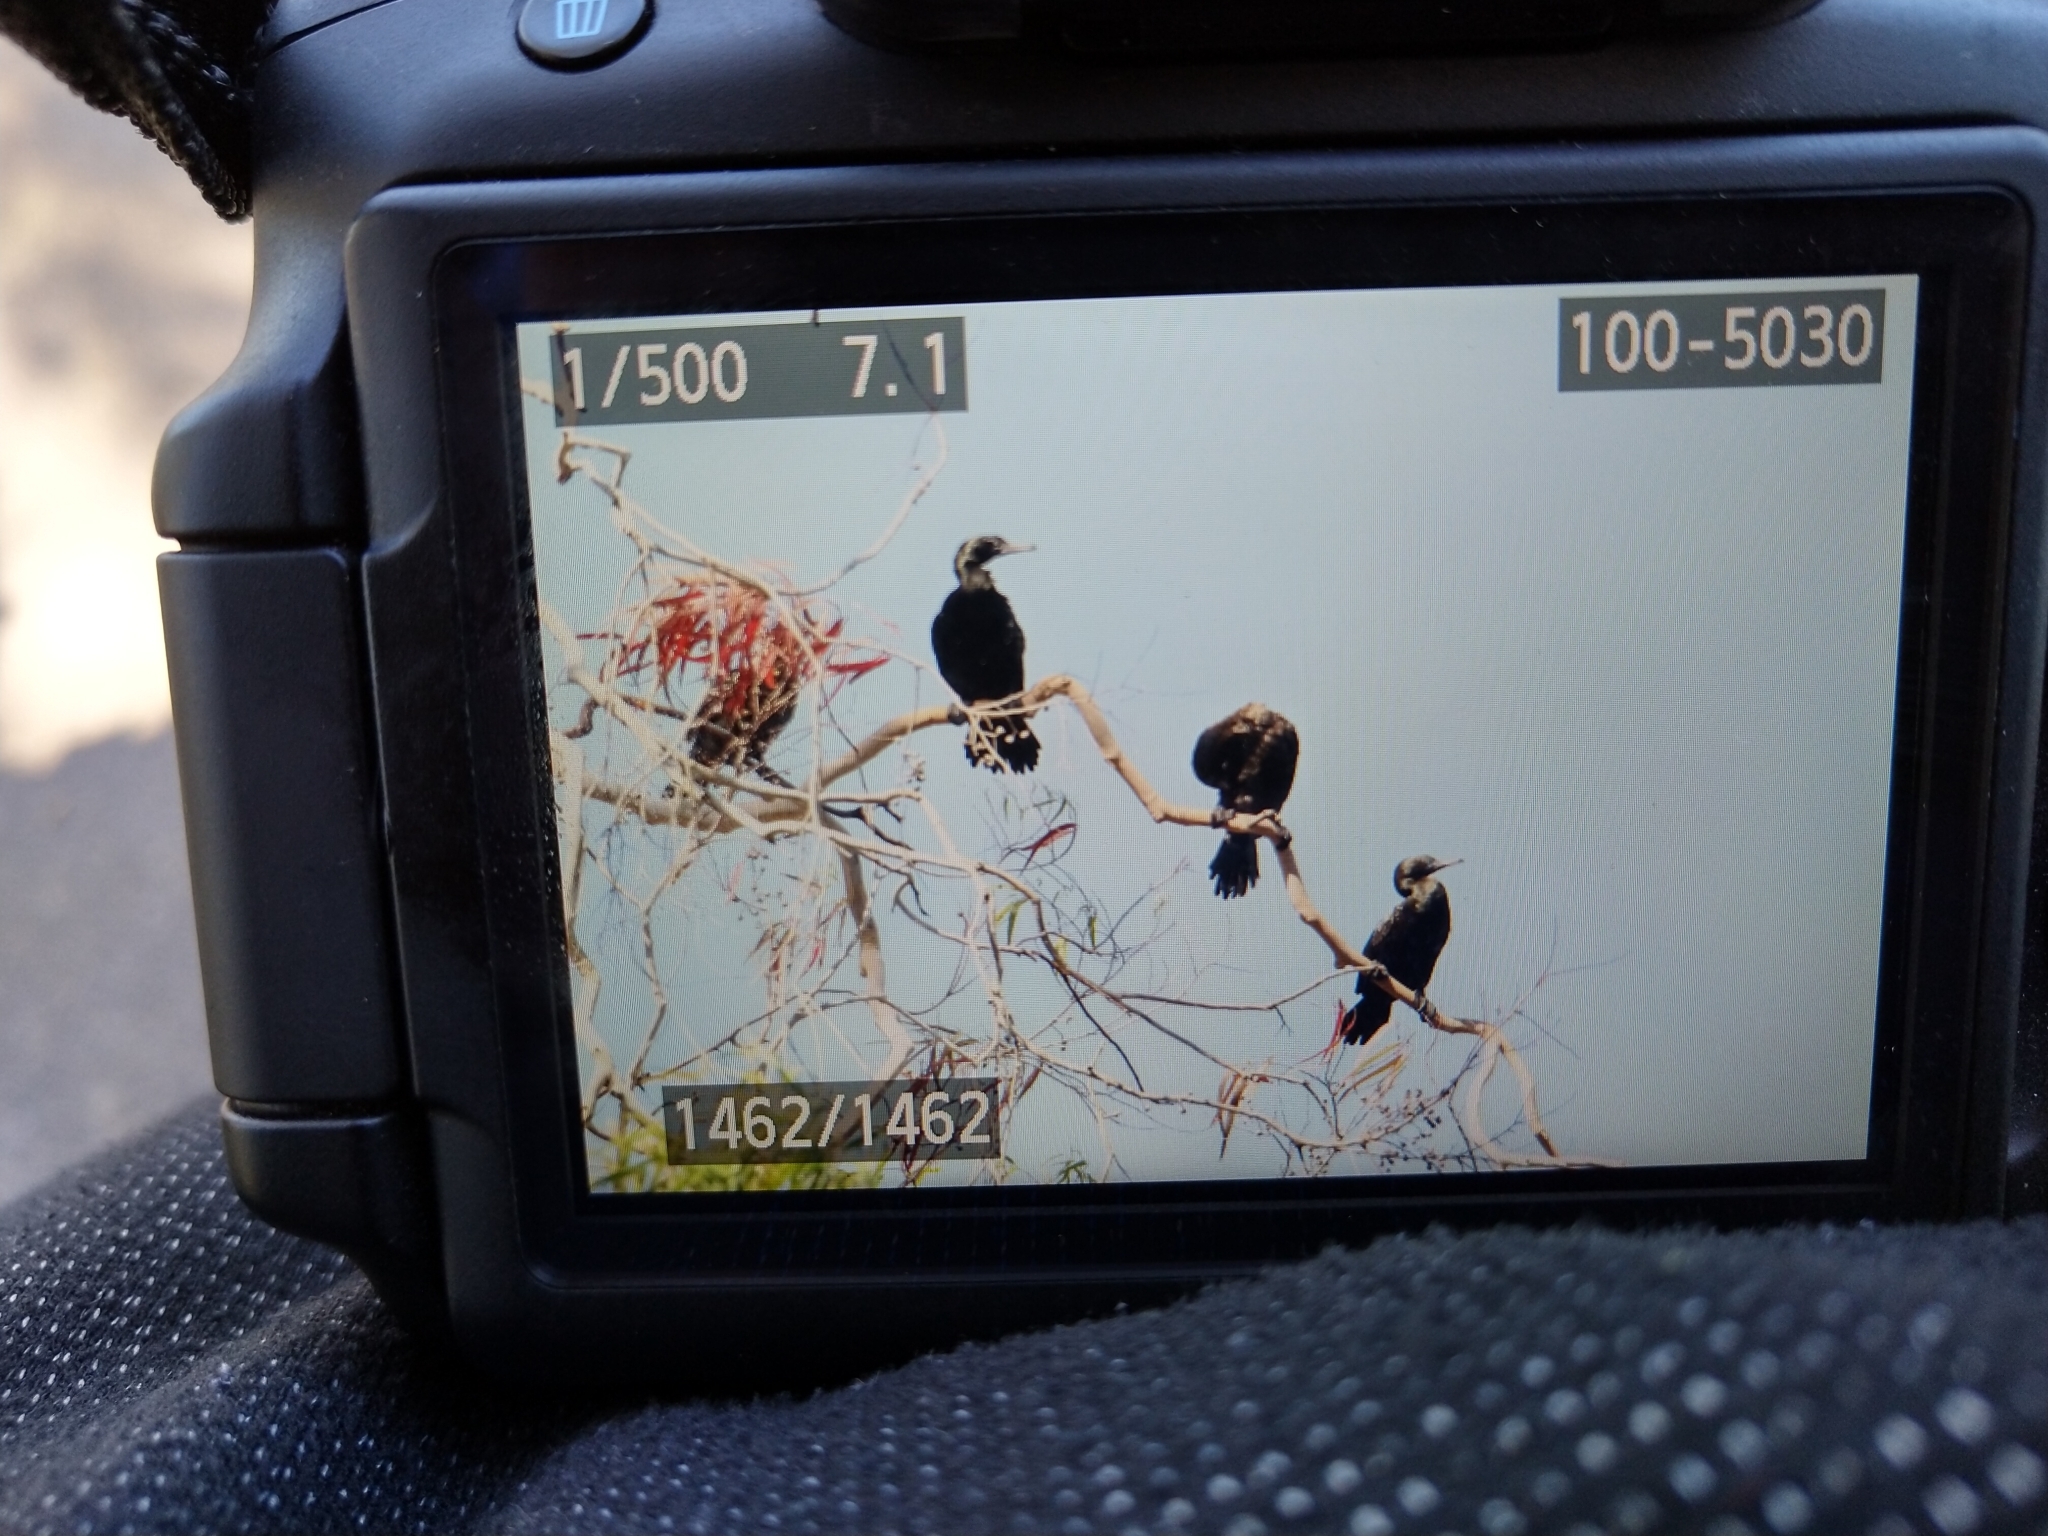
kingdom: Animalia
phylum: Chordata
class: Aves
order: Suliformes
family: Phalacrocoracidae
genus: Phalacrocorax
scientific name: Phalacrocorax sulcirostris
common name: Little black cormorant
